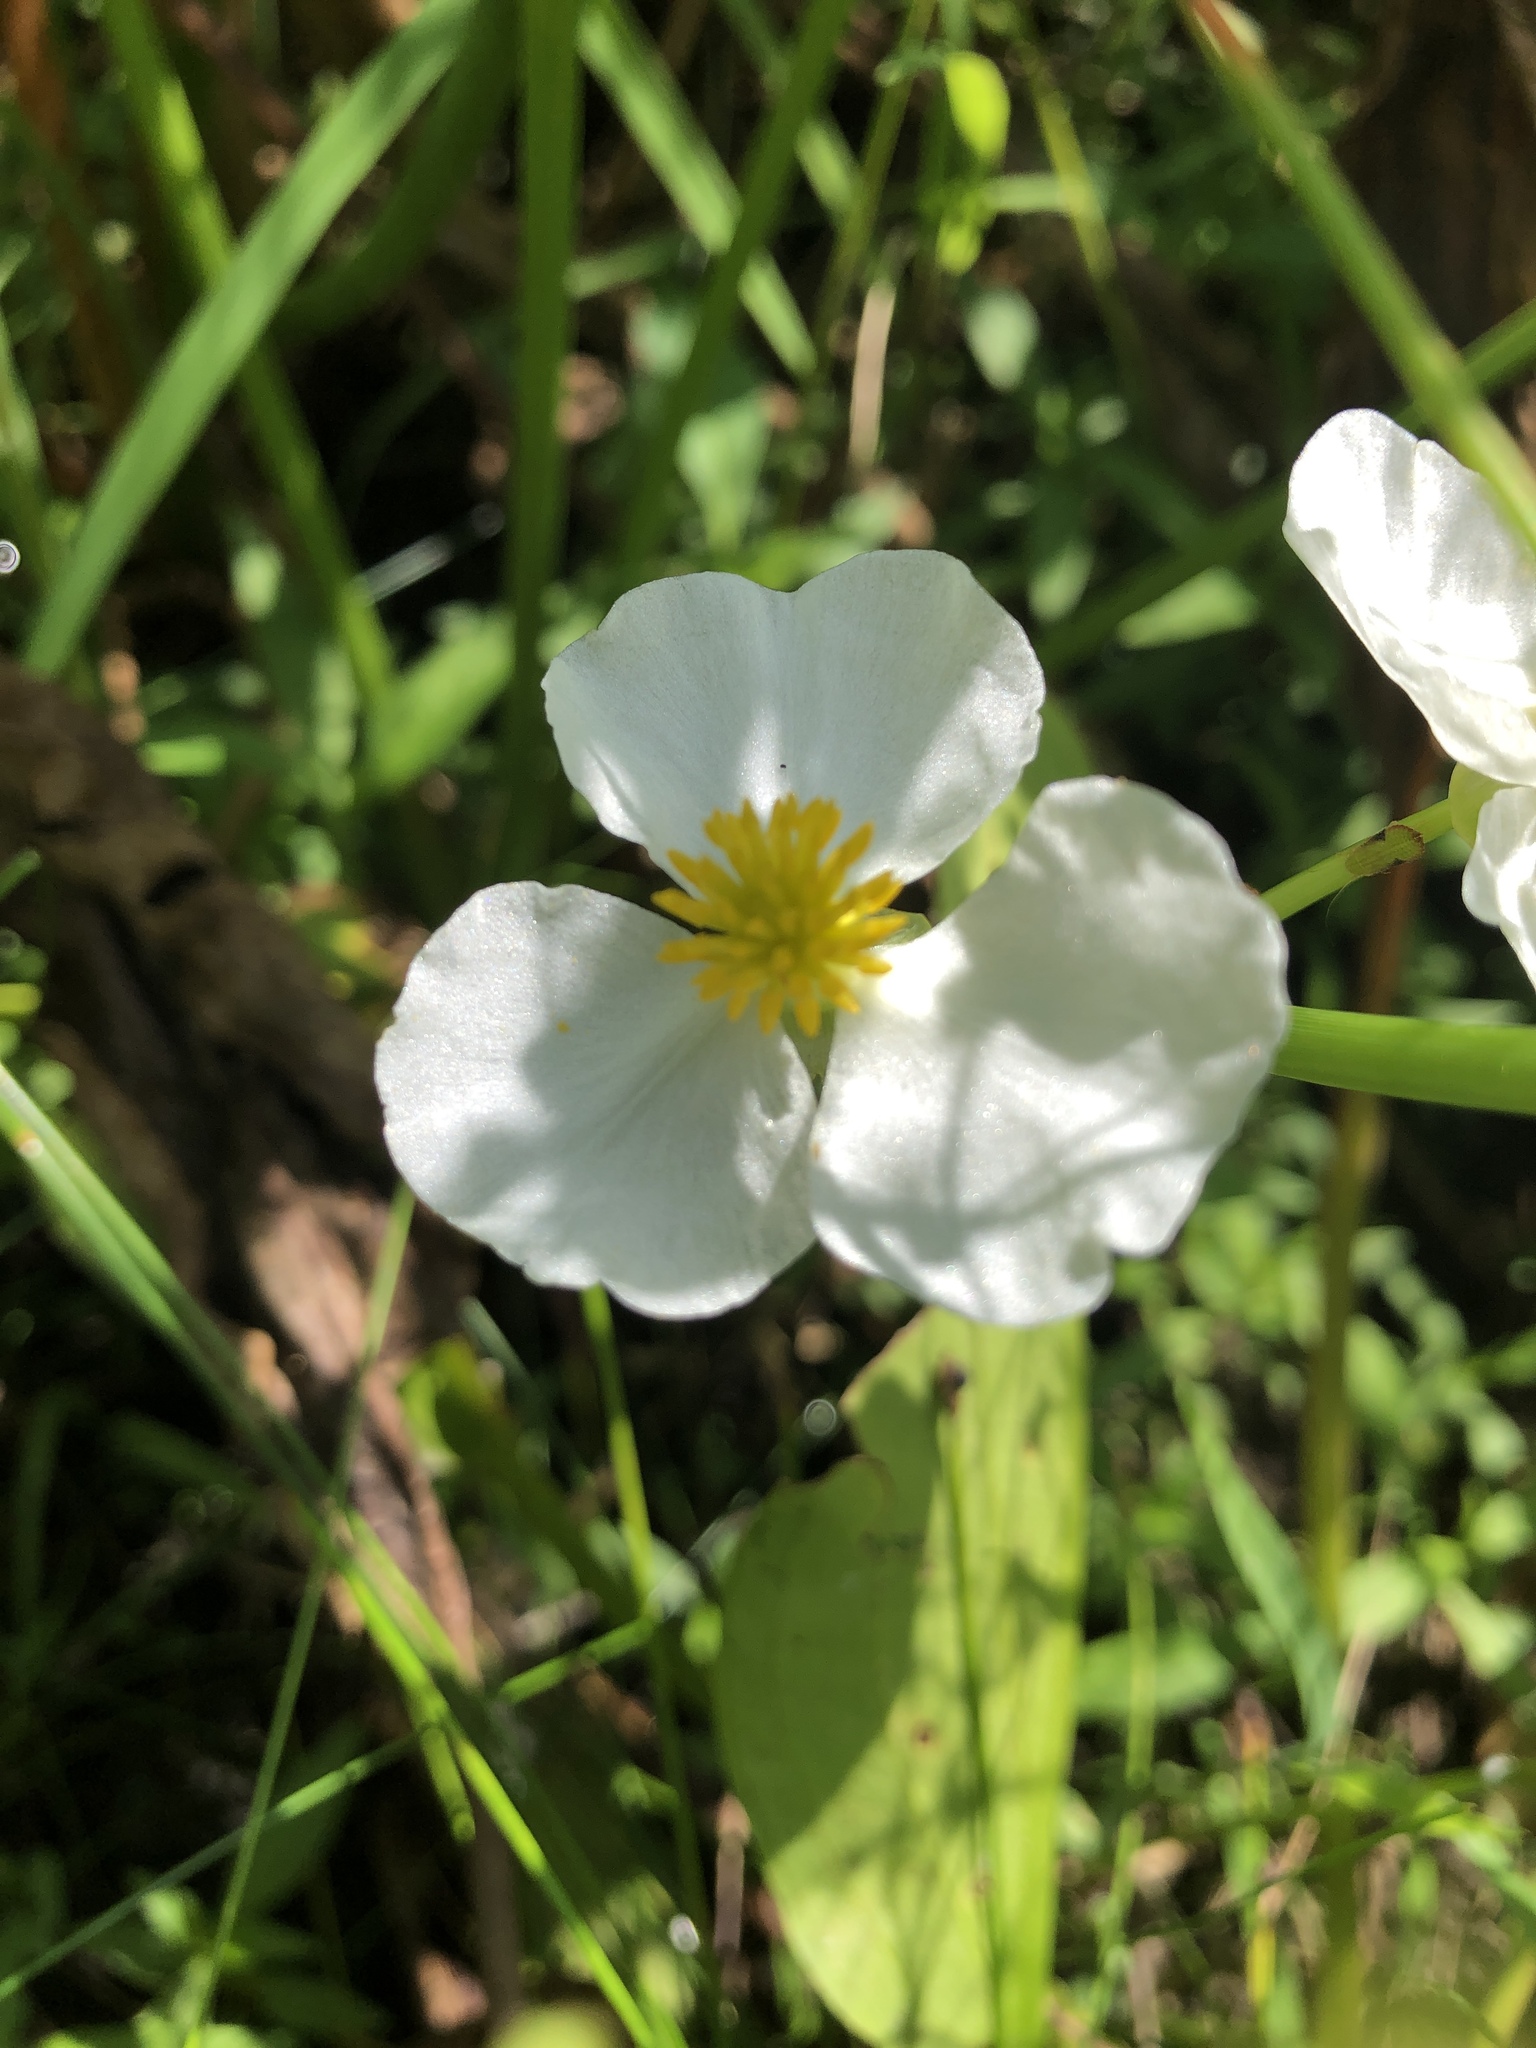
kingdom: Plantae
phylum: Tracheophyta
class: Liliopsida
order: Alismatales
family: Alismataceae
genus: Sagittaria
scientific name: Sagittaria
